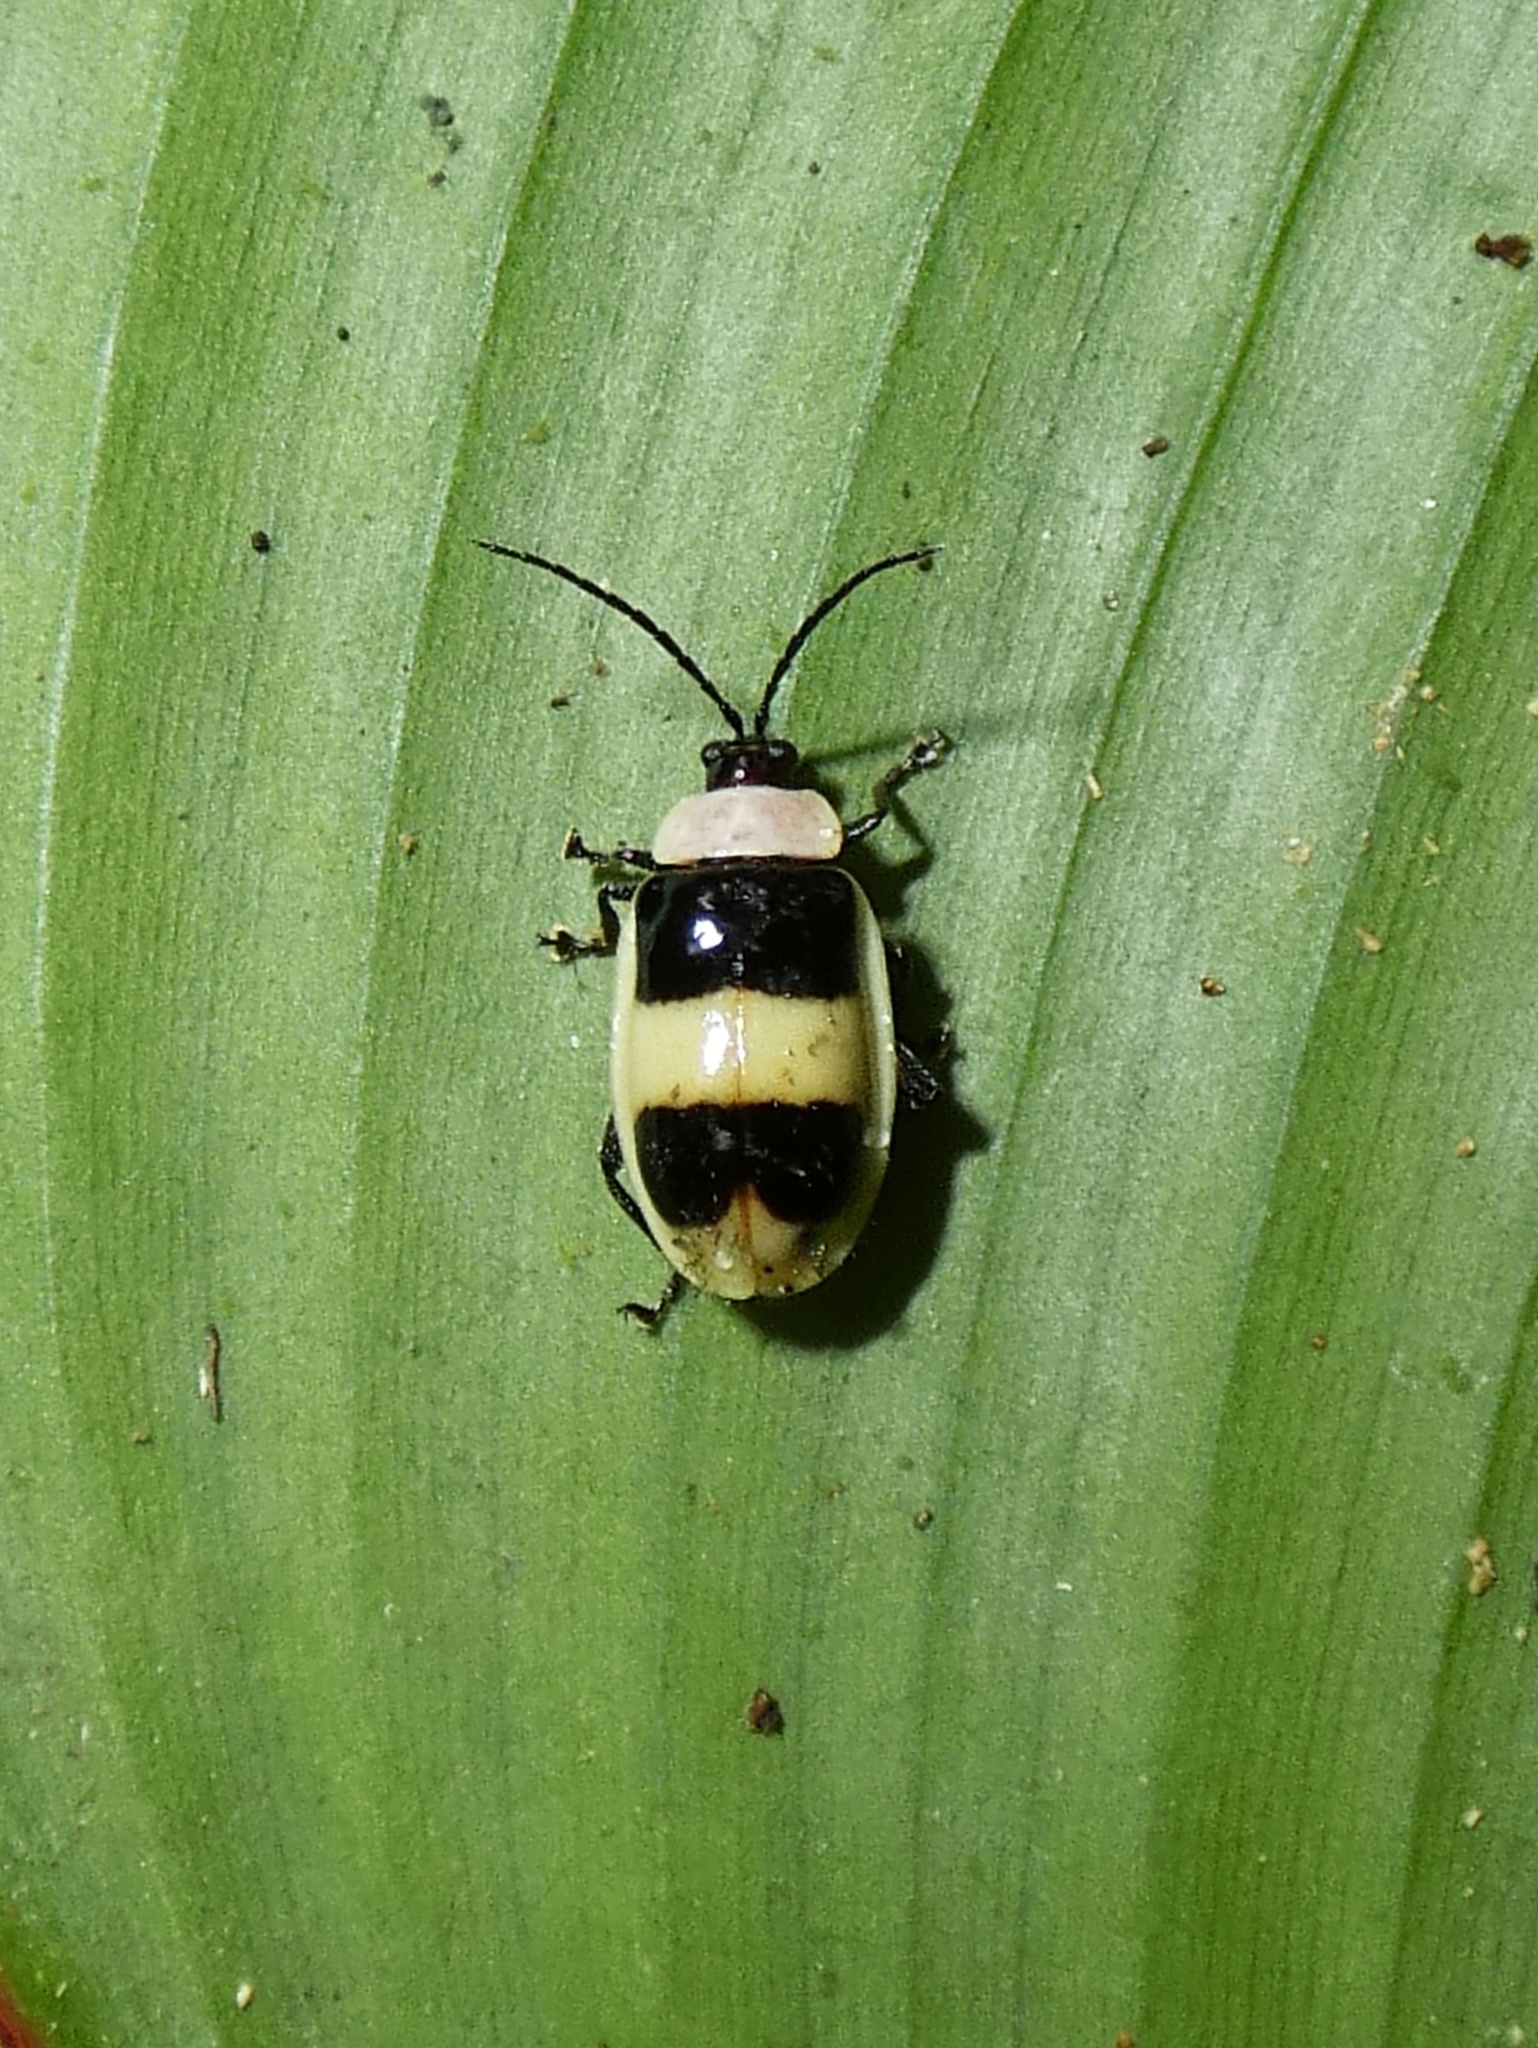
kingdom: Animalia
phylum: Arthropoda
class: Insecta
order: Coleoptera
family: Chrysomelidae
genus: Asphaera
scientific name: Asphaera
